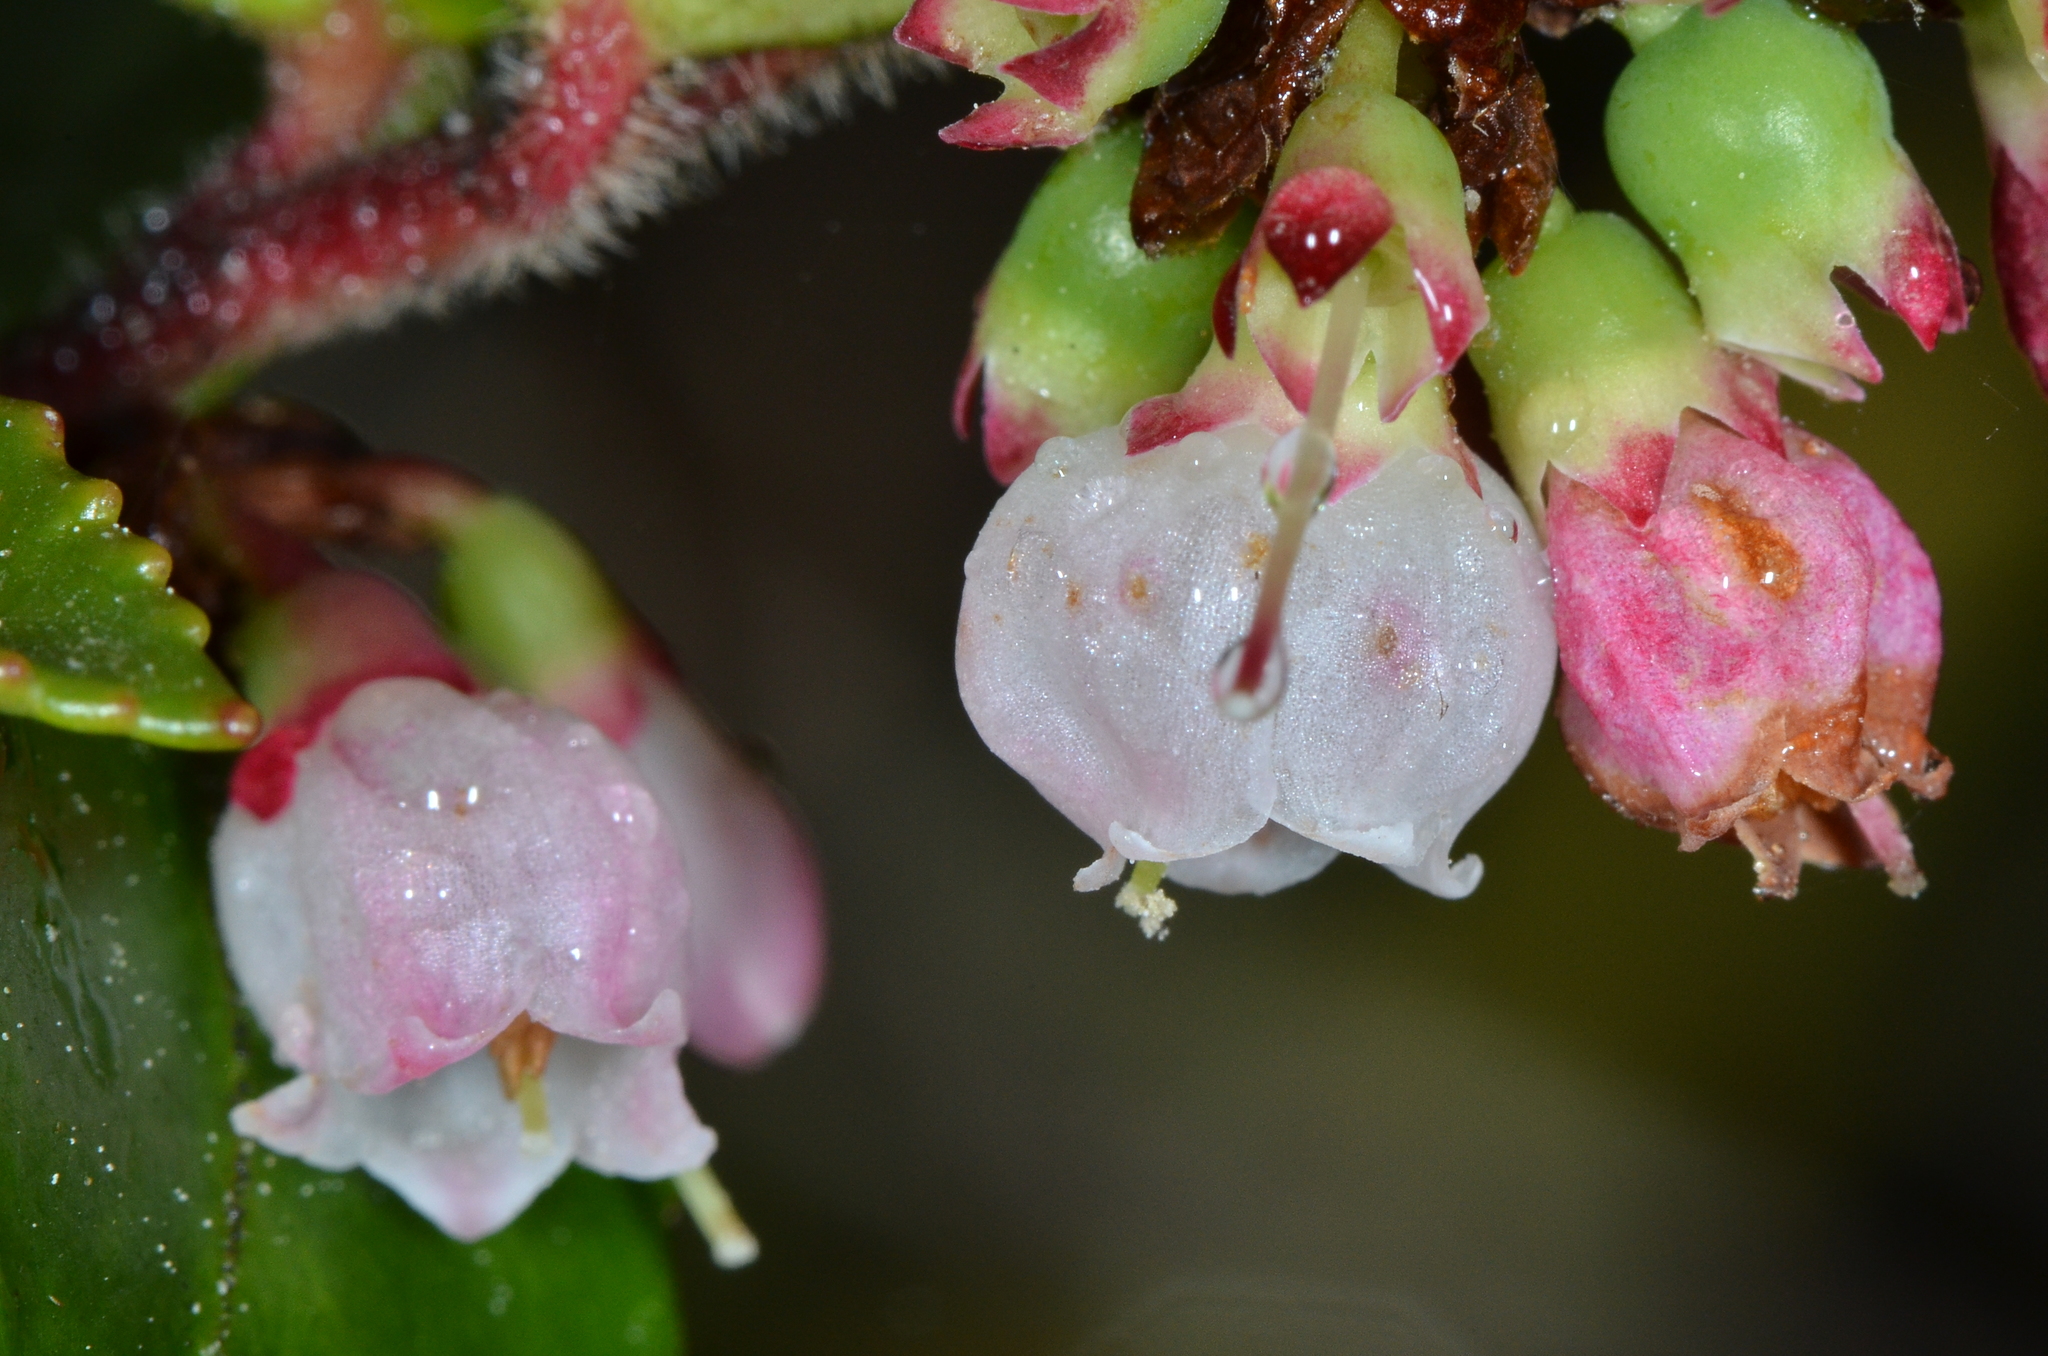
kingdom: Plantae
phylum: Tracheophyta
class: Magnoliopsida
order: Ericales
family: Ericaceae
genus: Vaccinium
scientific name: Vaccinium ovatum
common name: California-huckleberry
